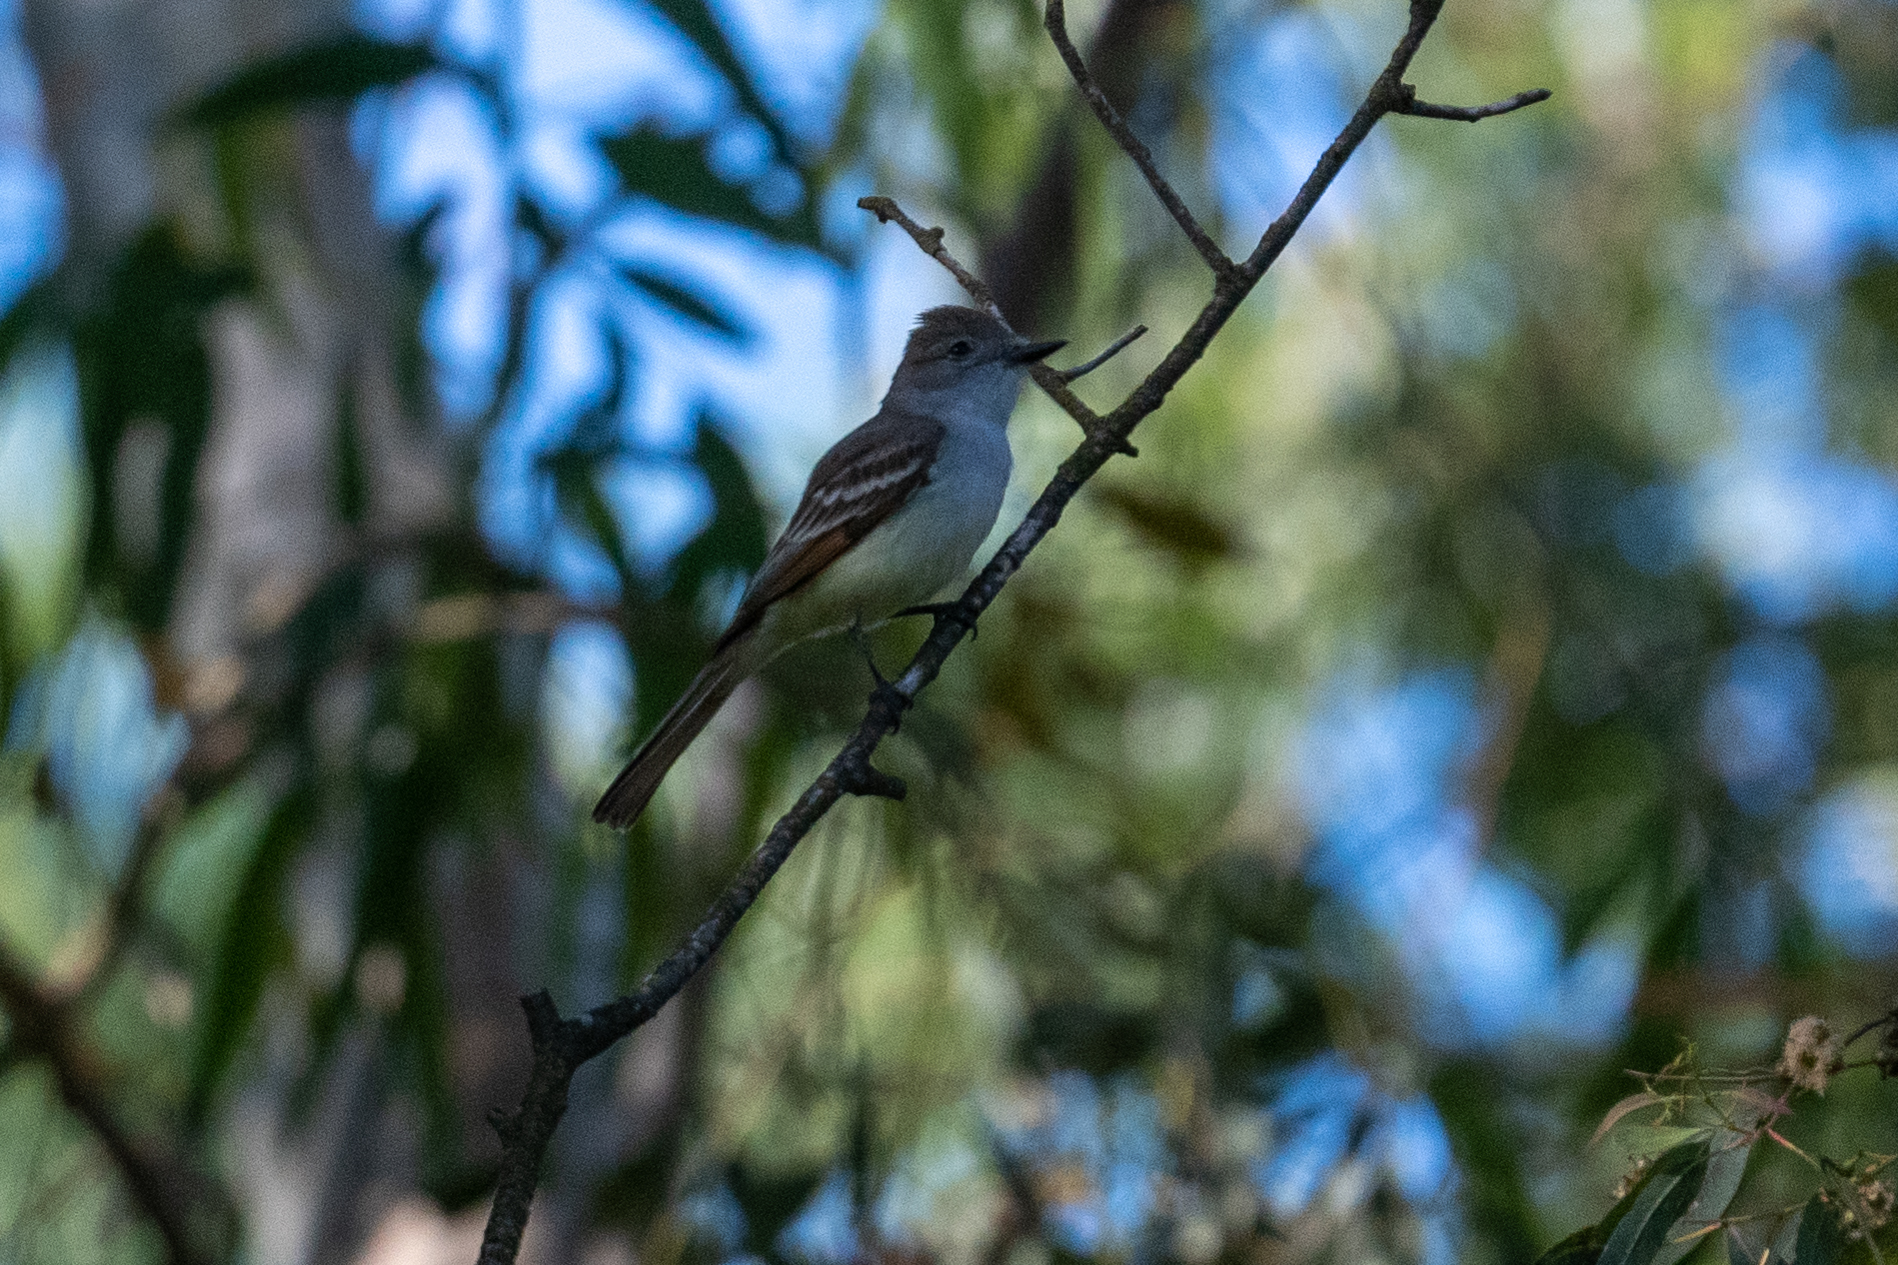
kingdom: Animalia
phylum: Chordata
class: Aves
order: Passeriformes
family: Tyrannidae
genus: Myiarchus
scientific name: Myiarchus cinerascens
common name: Ash-throated flycatcher
